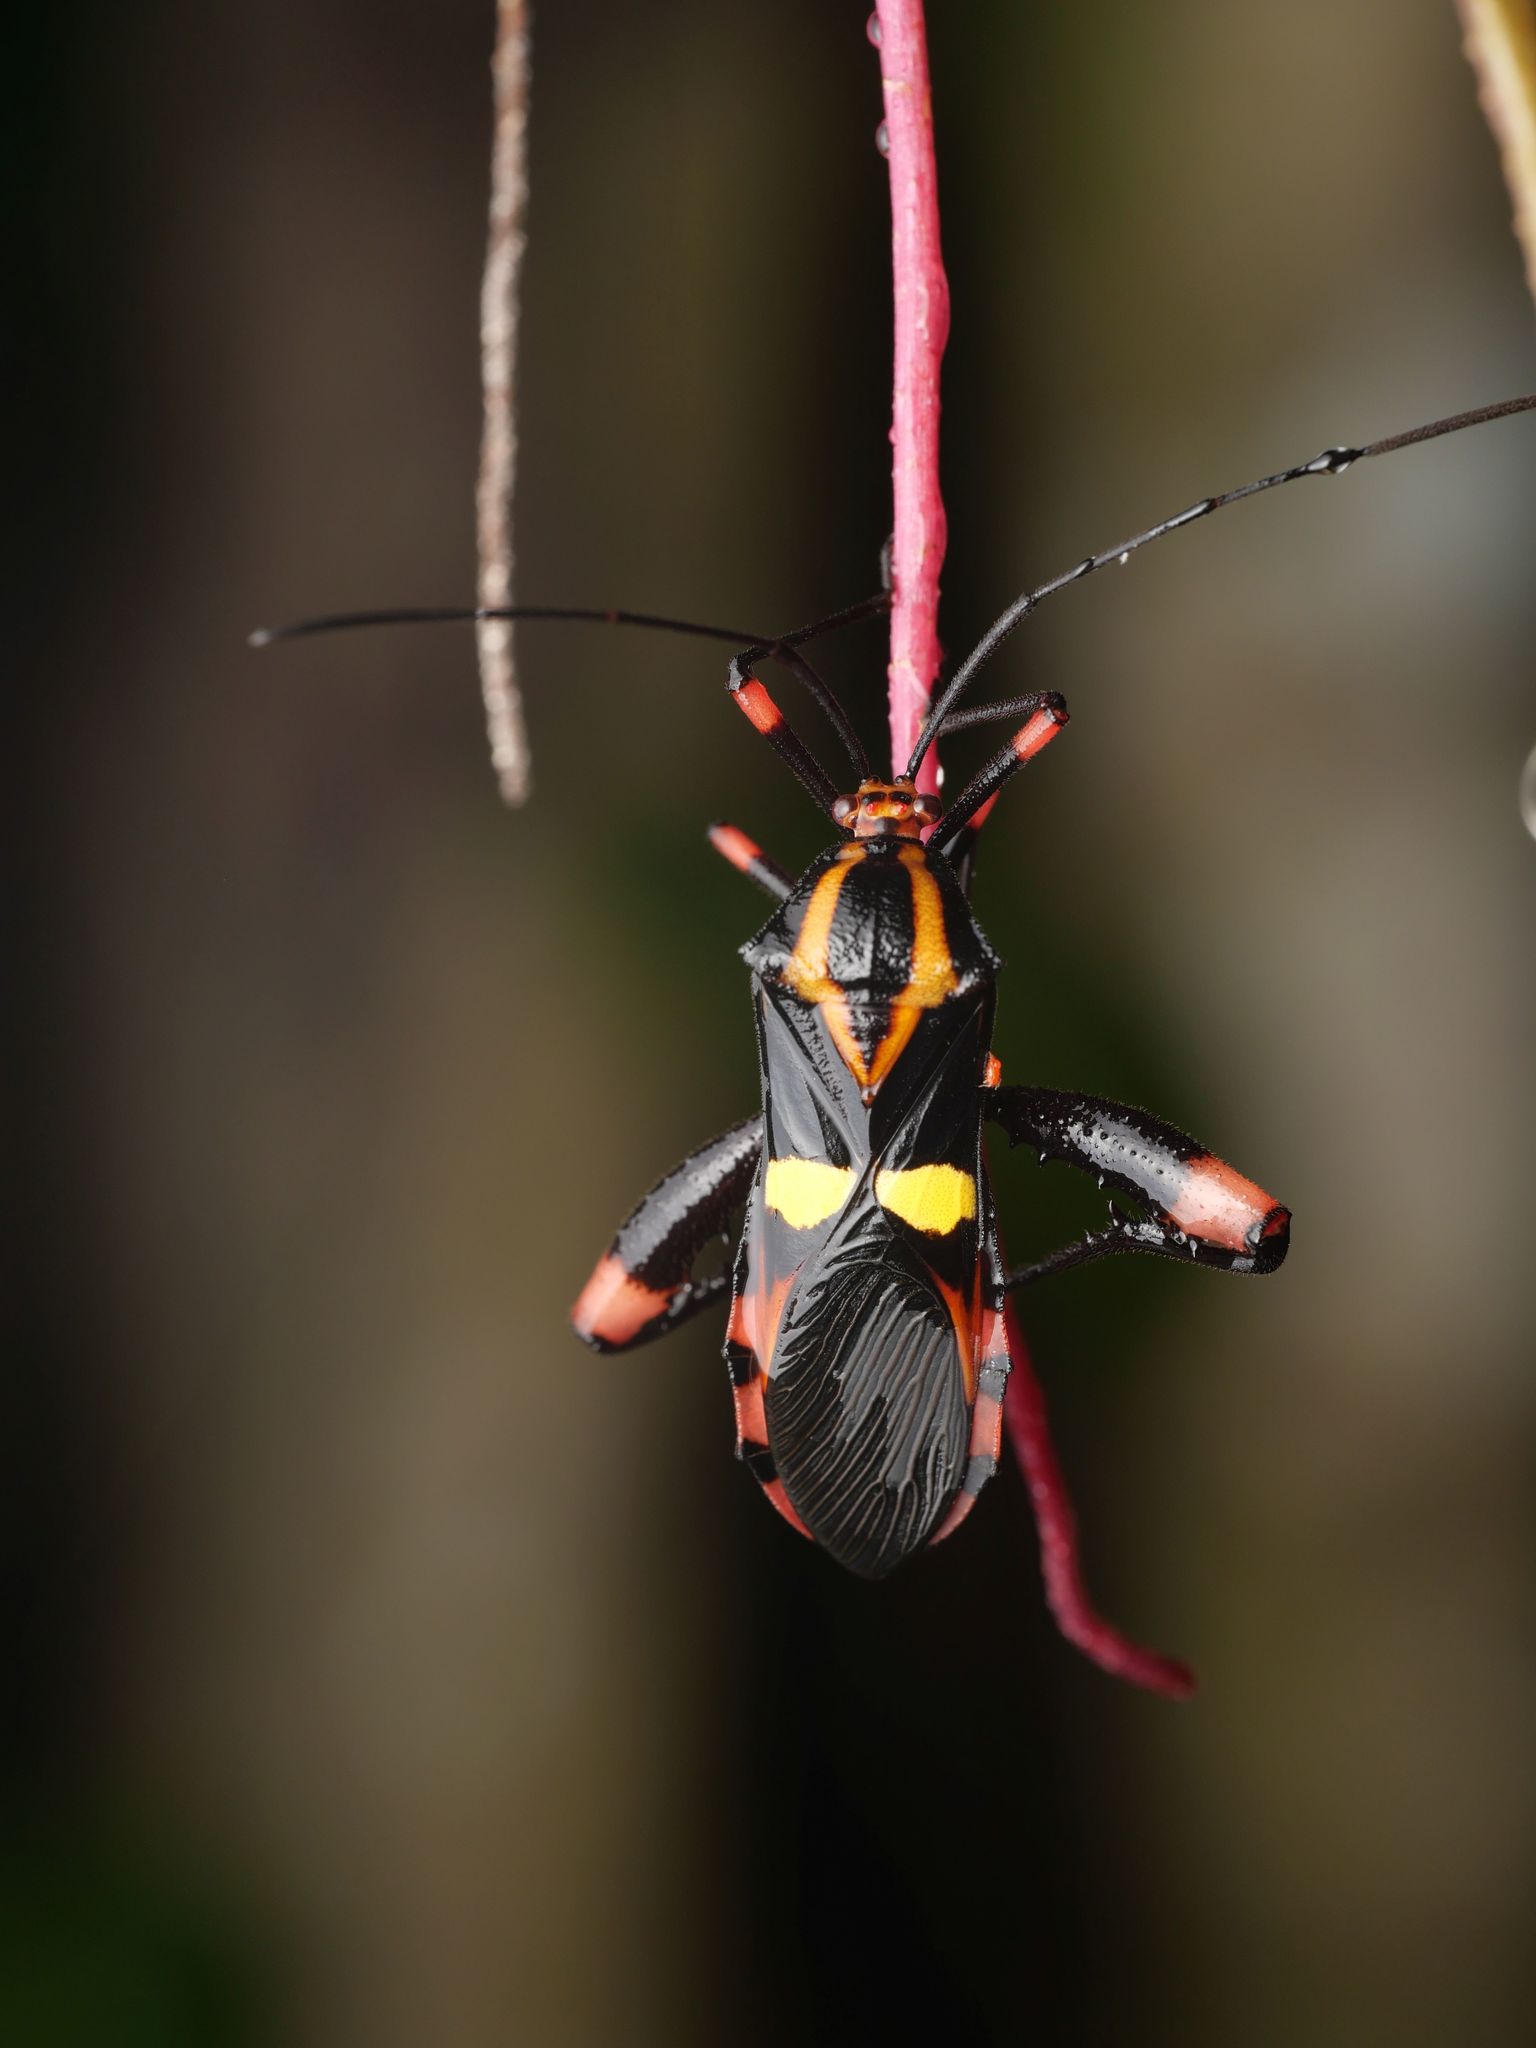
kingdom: Animalia
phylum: Arthropoda
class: Insecta
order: Hemiptera
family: Coreidae
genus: Schaeferocoris
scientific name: Schaeferocoris ecuadorensis
